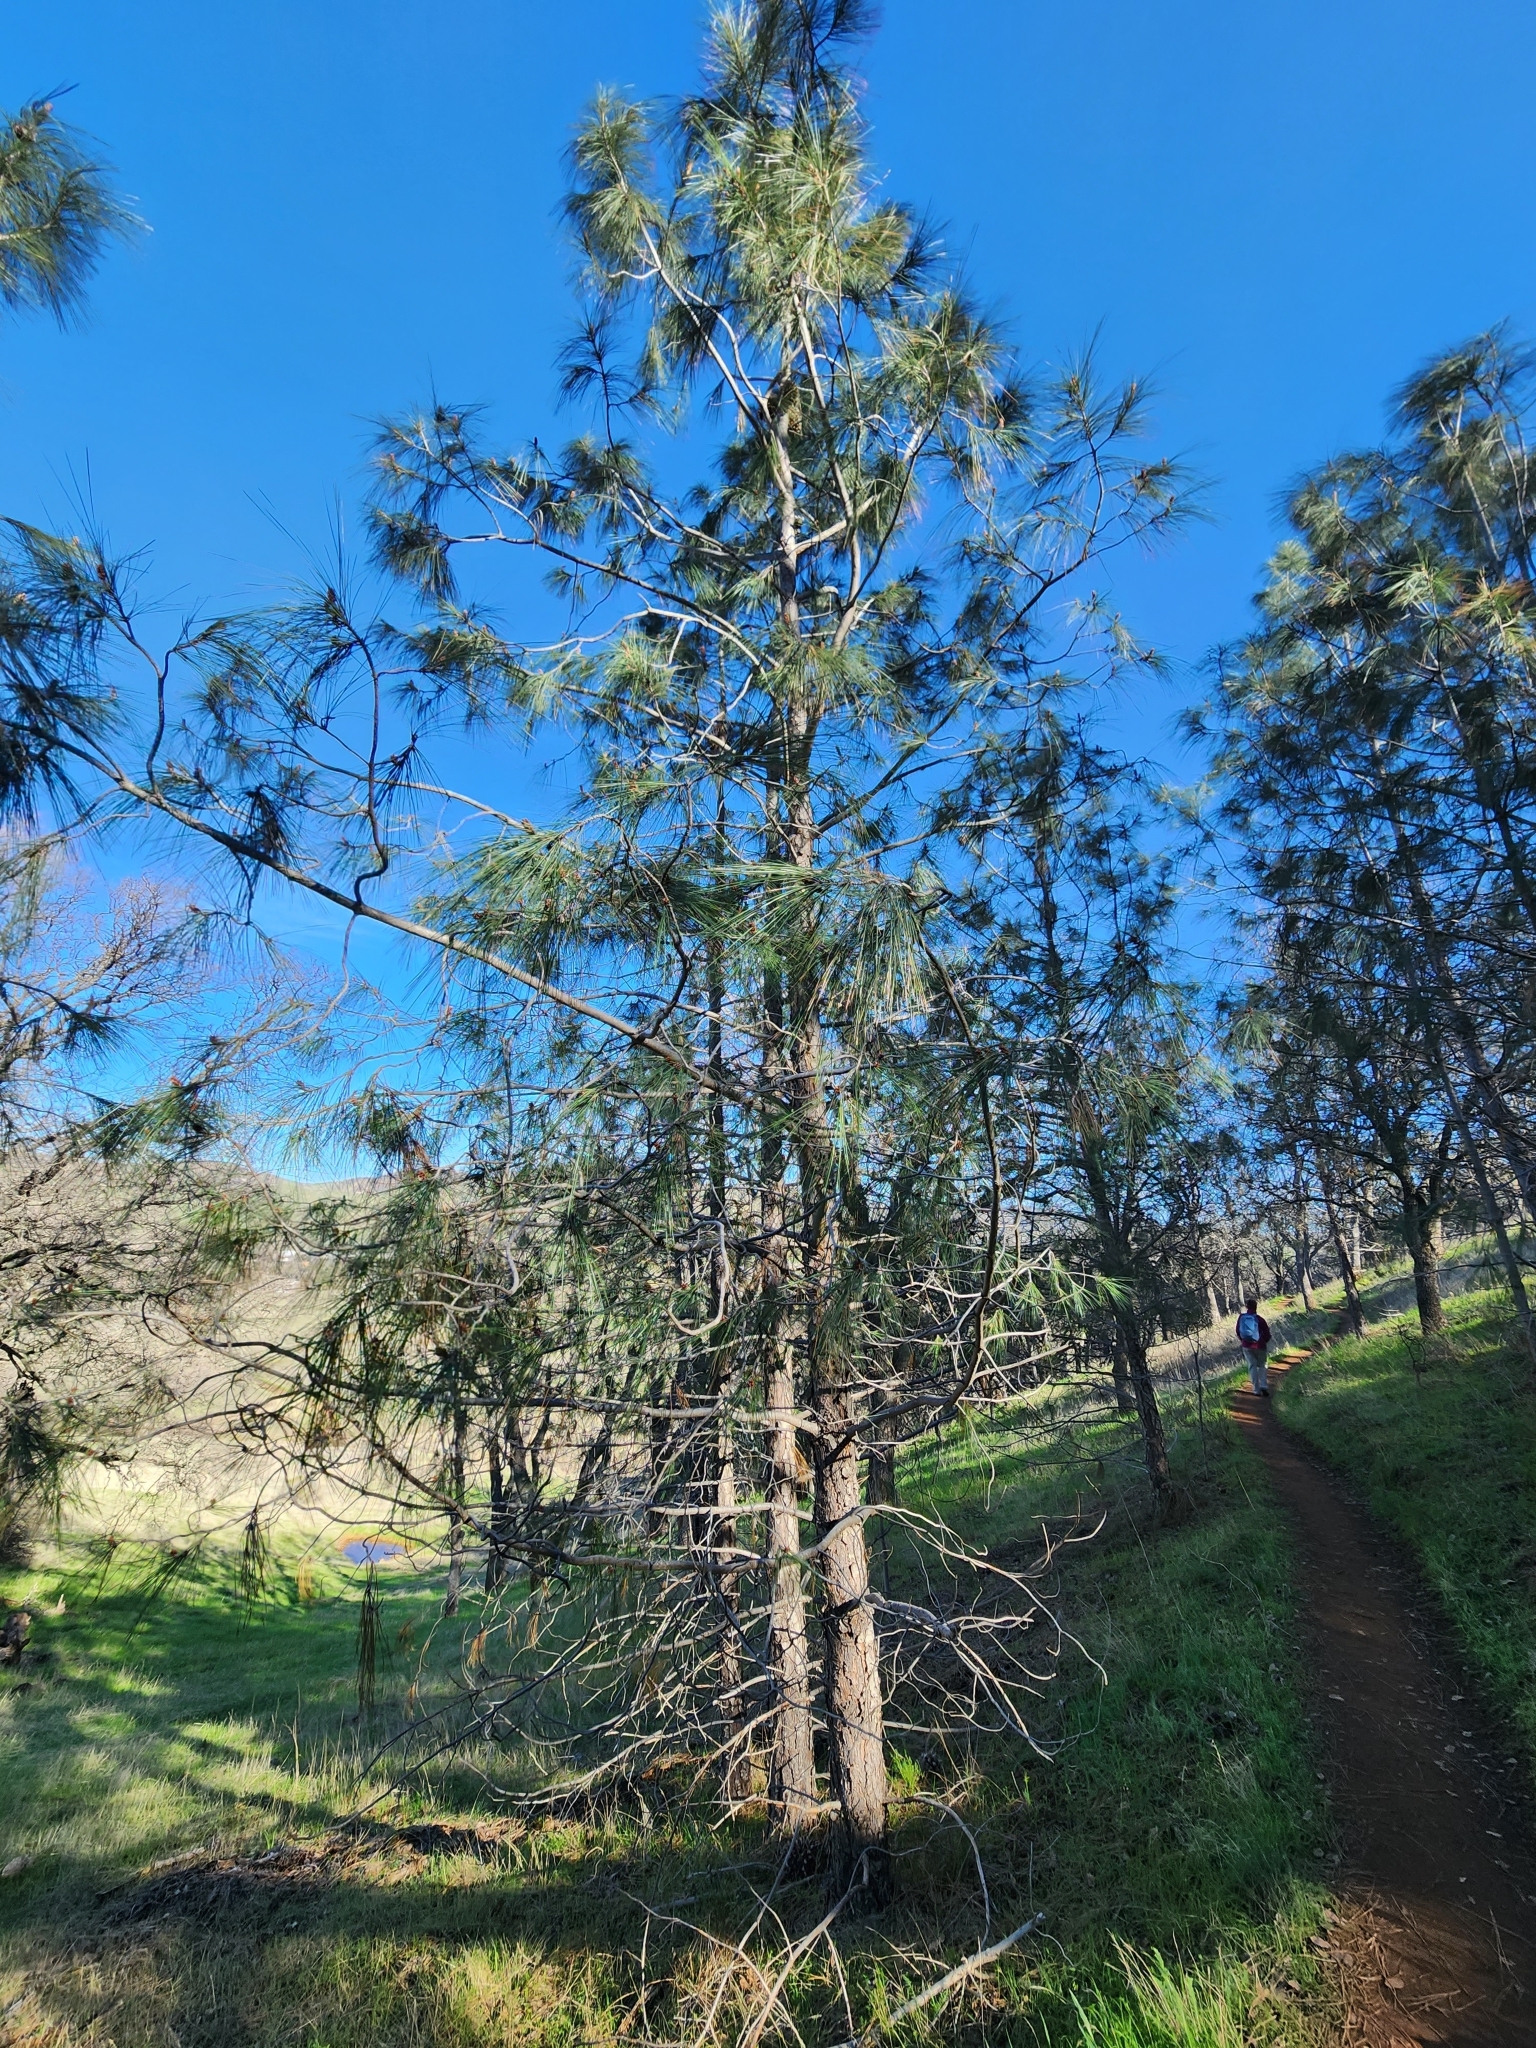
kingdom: Plantae
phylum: Tracheophyta
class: Pinopsida
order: Pinales
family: Pinaceae
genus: Pinus
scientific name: Pinus coulteri
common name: Coulter pine
